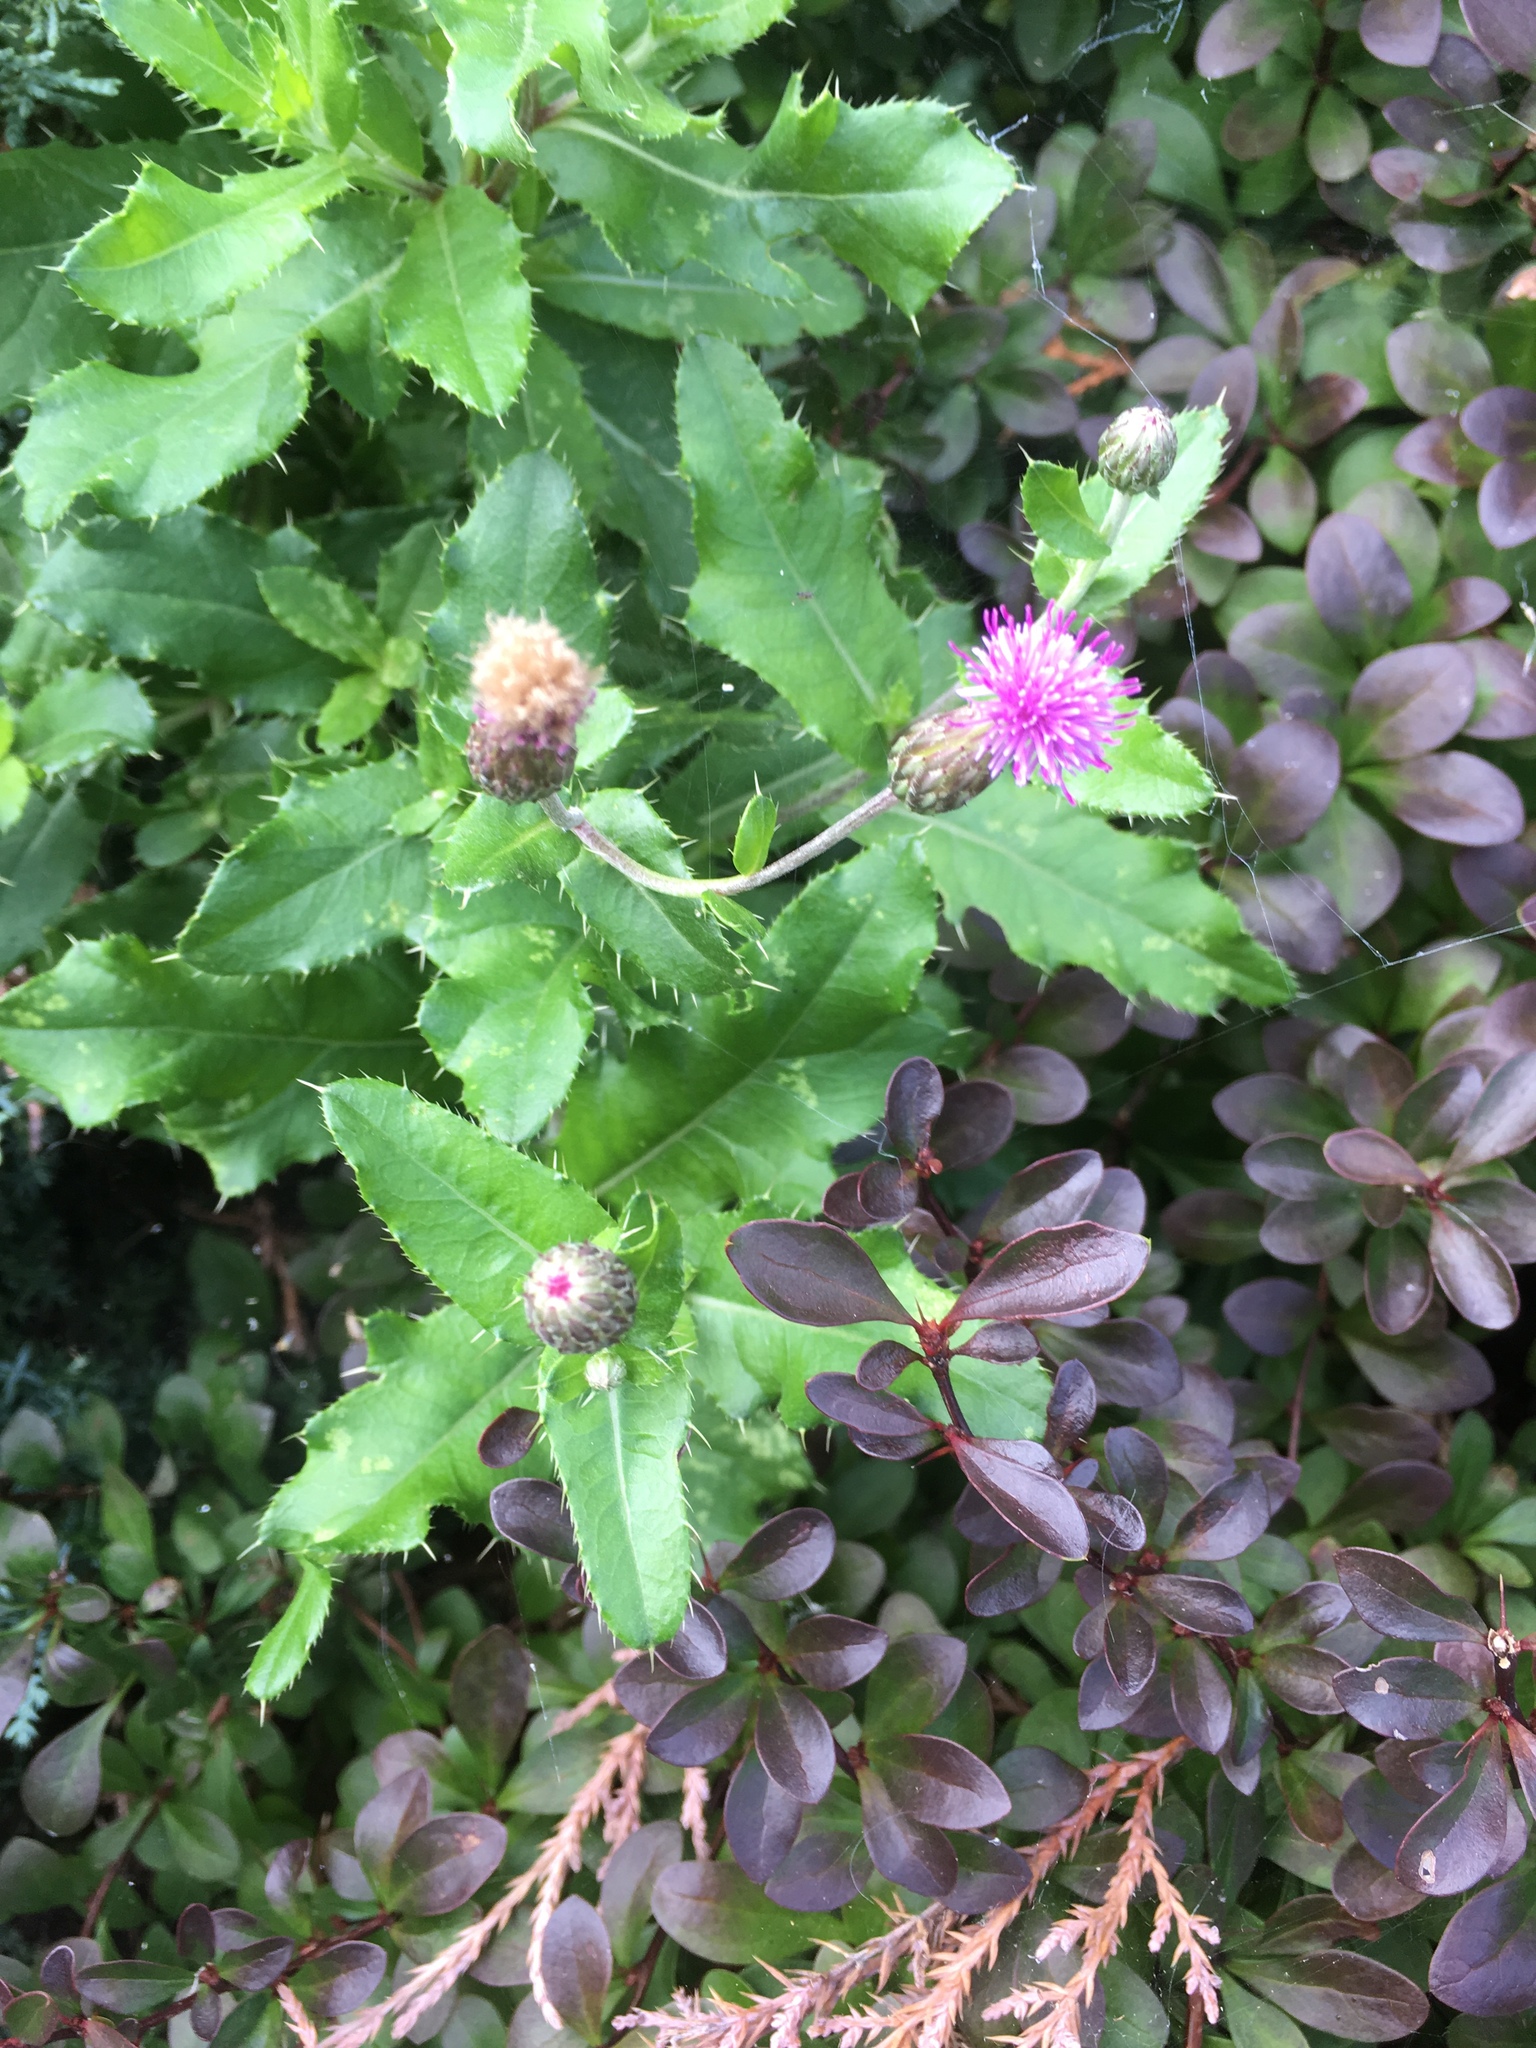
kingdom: Plantae
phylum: Tracheophyta
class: Magnoliopsida
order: Asterales
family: Asteraceae
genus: Cirsium
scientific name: Cirsium arvense
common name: Creeping thistle
